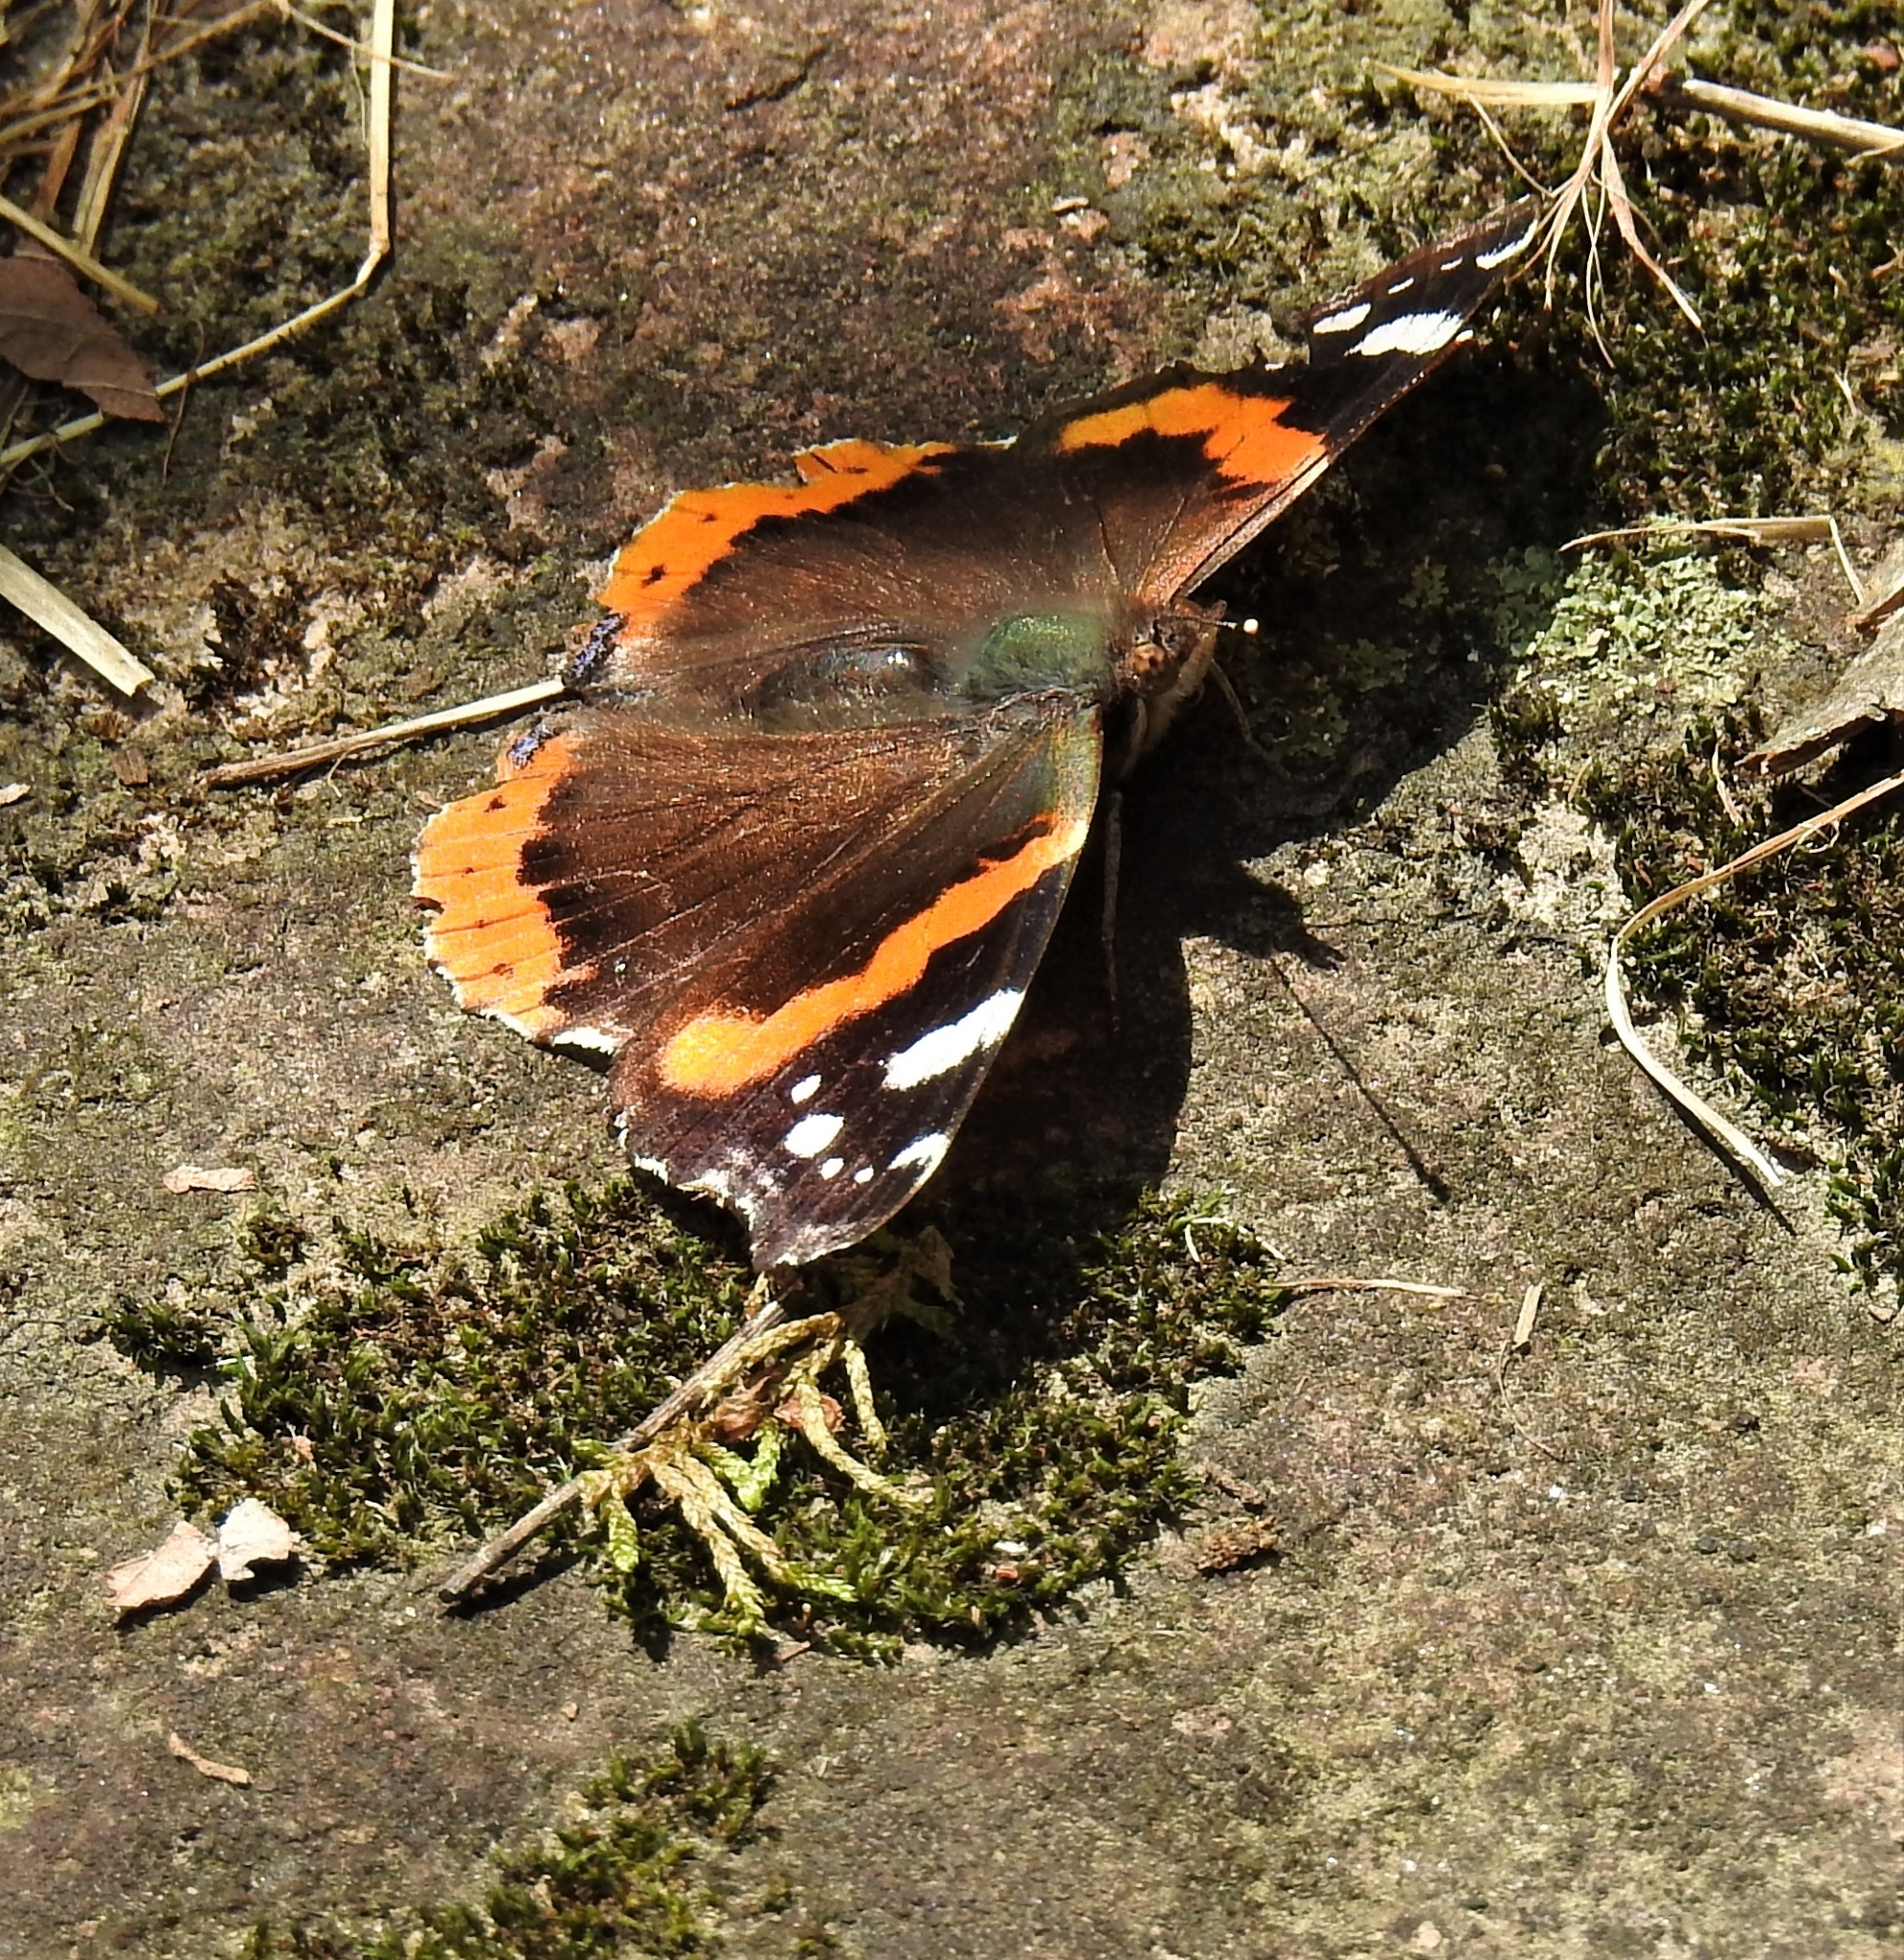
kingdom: Animalia
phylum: Arthropoda
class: Insecta
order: Lepidoptera
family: Nymphalidae
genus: Vanessa
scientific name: Vanessa atalanta
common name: Red admiral
